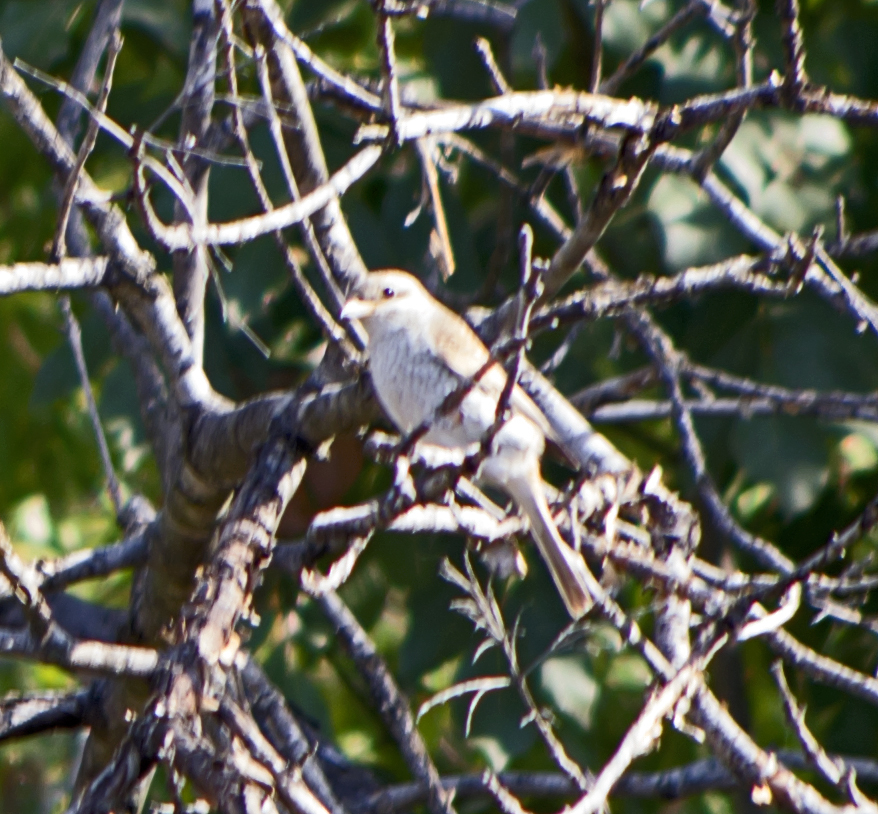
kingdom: Animalia
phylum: Chordata
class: Aves
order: Passeriformes
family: Laniidae
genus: Lanius
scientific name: Lanius collurio
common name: Red-backed shrike
